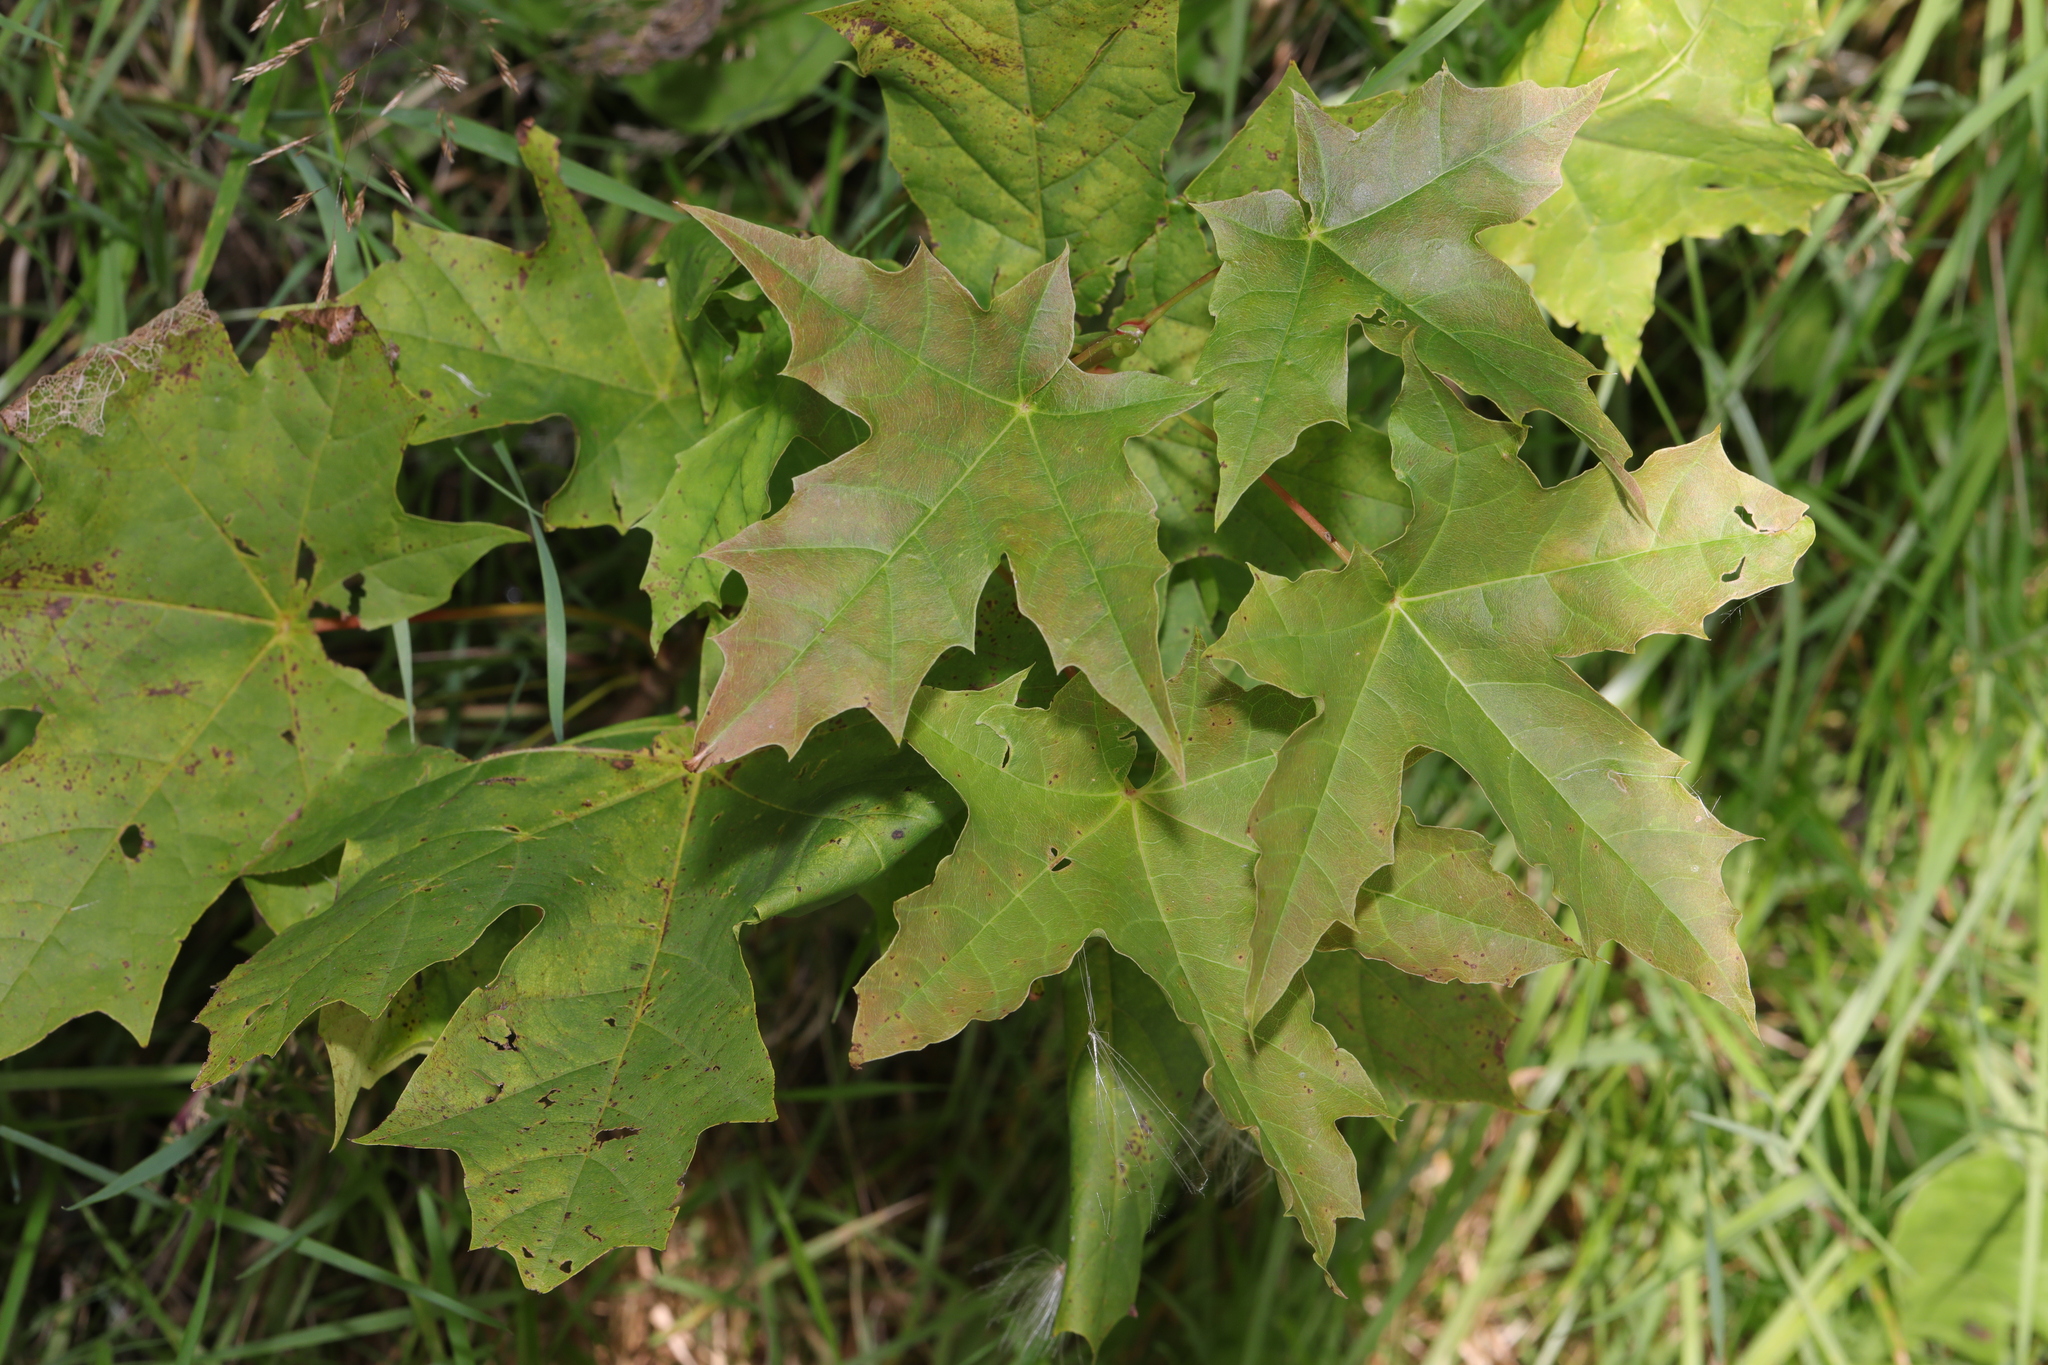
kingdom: Plantae
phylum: Tracheophyta
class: Magnoliopsida
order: Sapindales
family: Sapindaceae
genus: Acer
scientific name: Acer platanoides
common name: Norway maple
